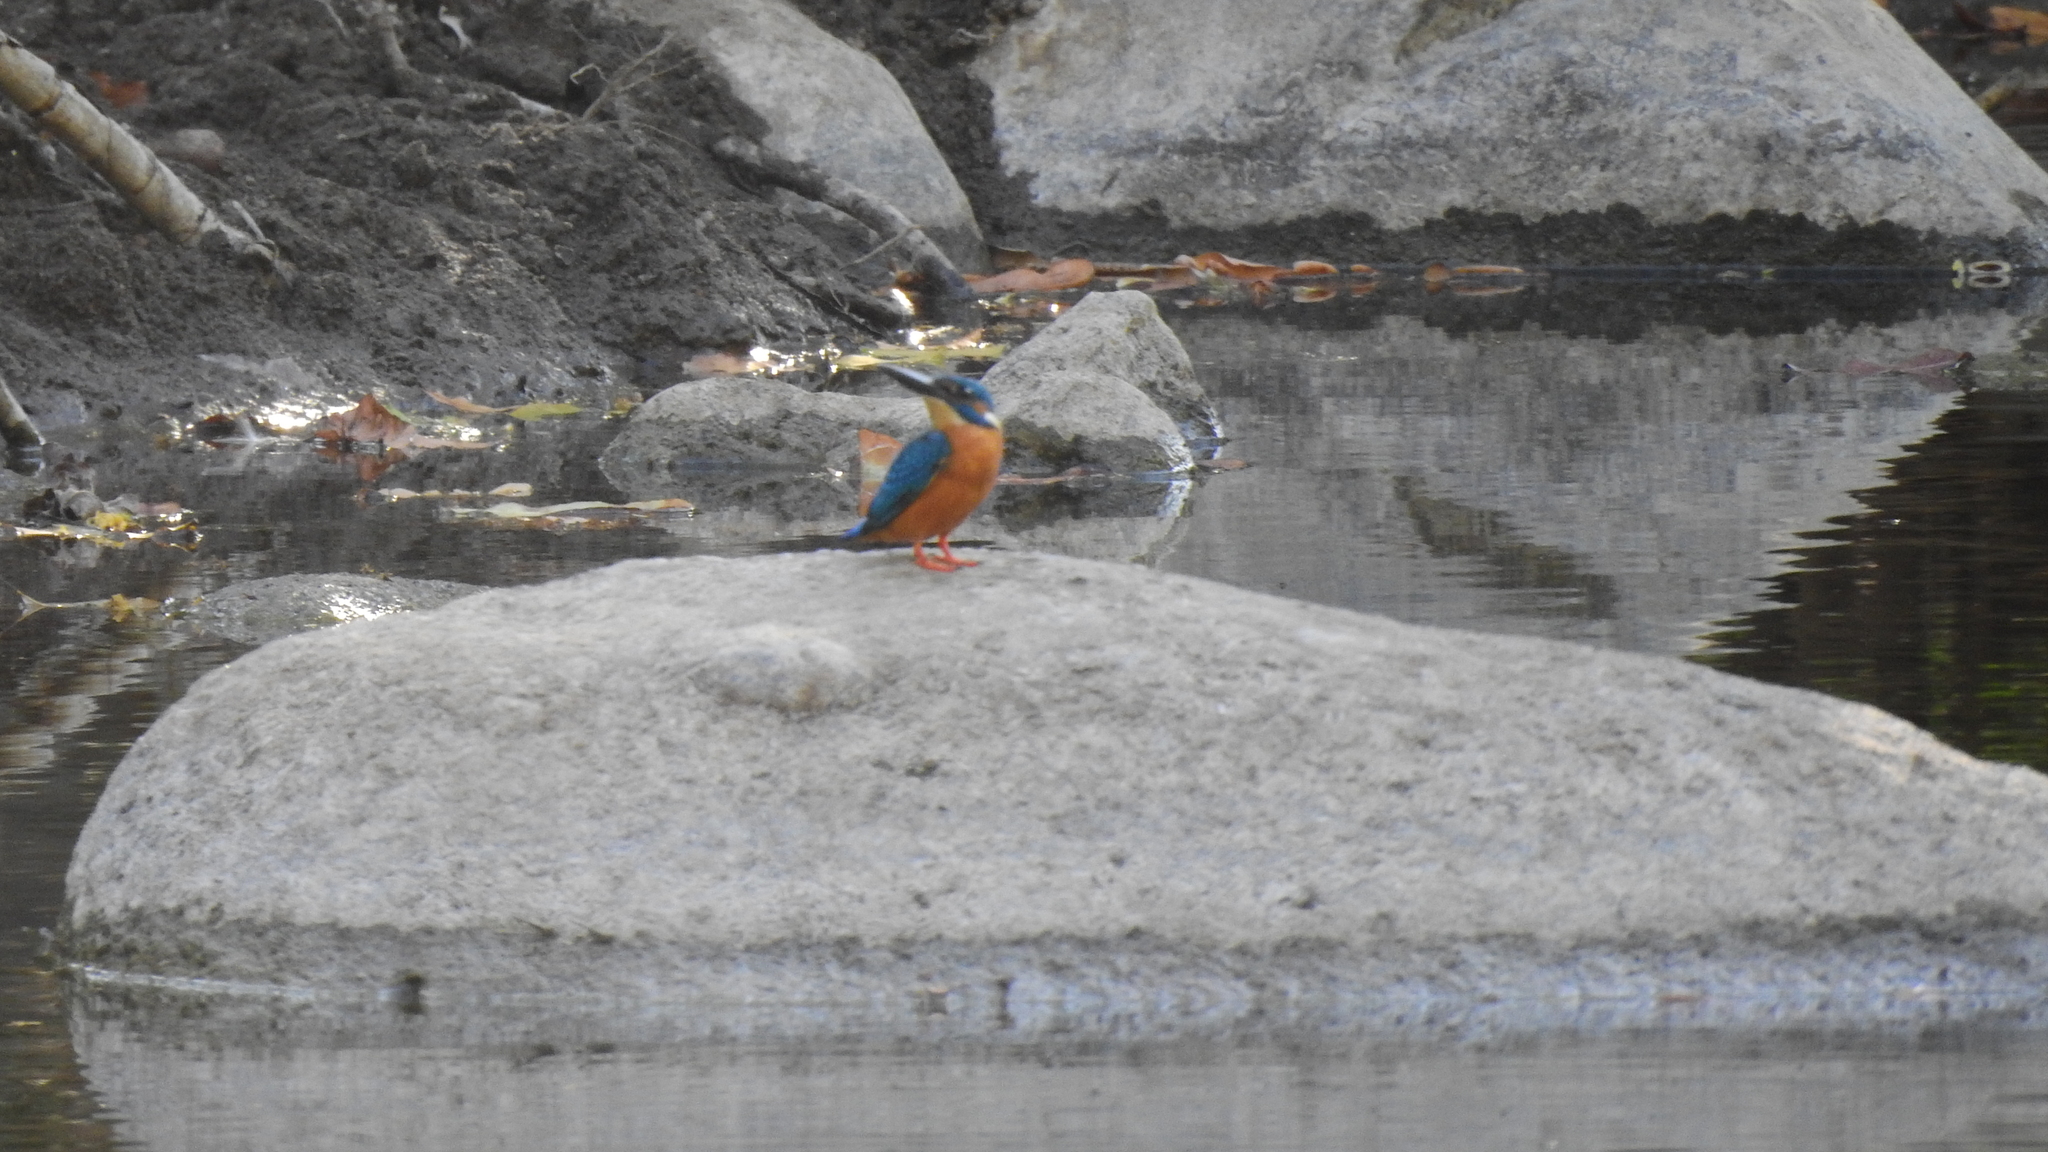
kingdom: Animalia
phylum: Chordata
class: Aves
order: Coraciiformes
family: Alcedinidae
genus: Alcedo
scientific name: Alcedo atthis
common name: Common kingfisher
